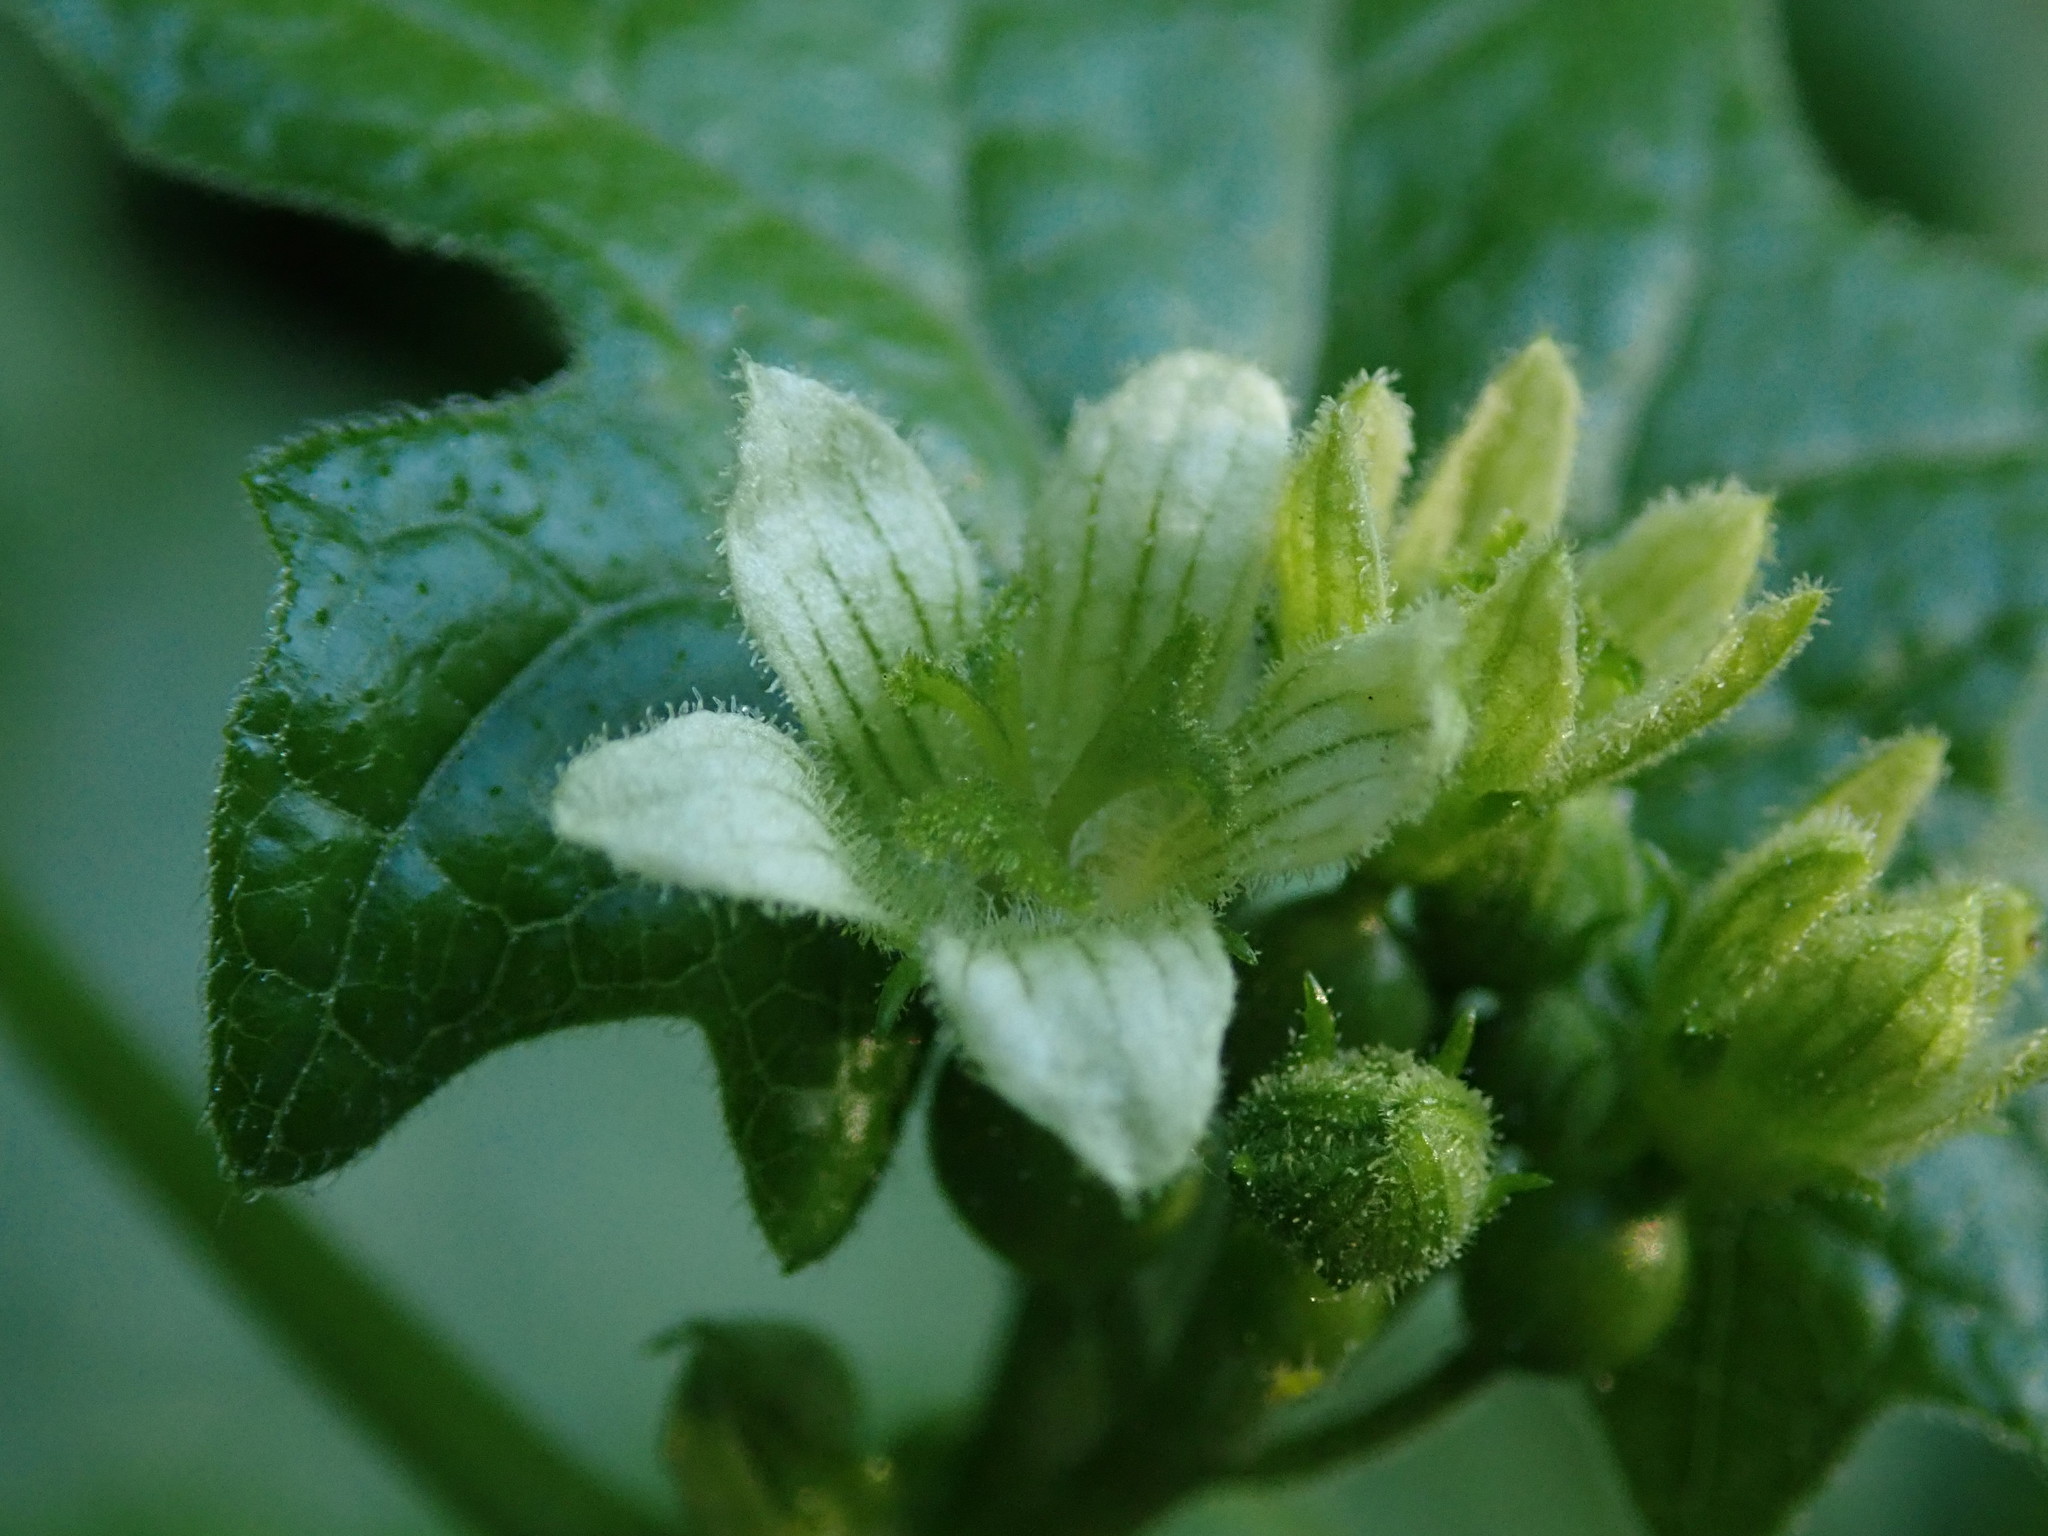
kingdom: Plantae
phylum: Tracheophyta
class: Magnoliopsida
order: Cucurbitales
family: Cucurbitaceae
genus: Bryonia
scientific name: Bryonia cretica
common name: Cretan bryony
